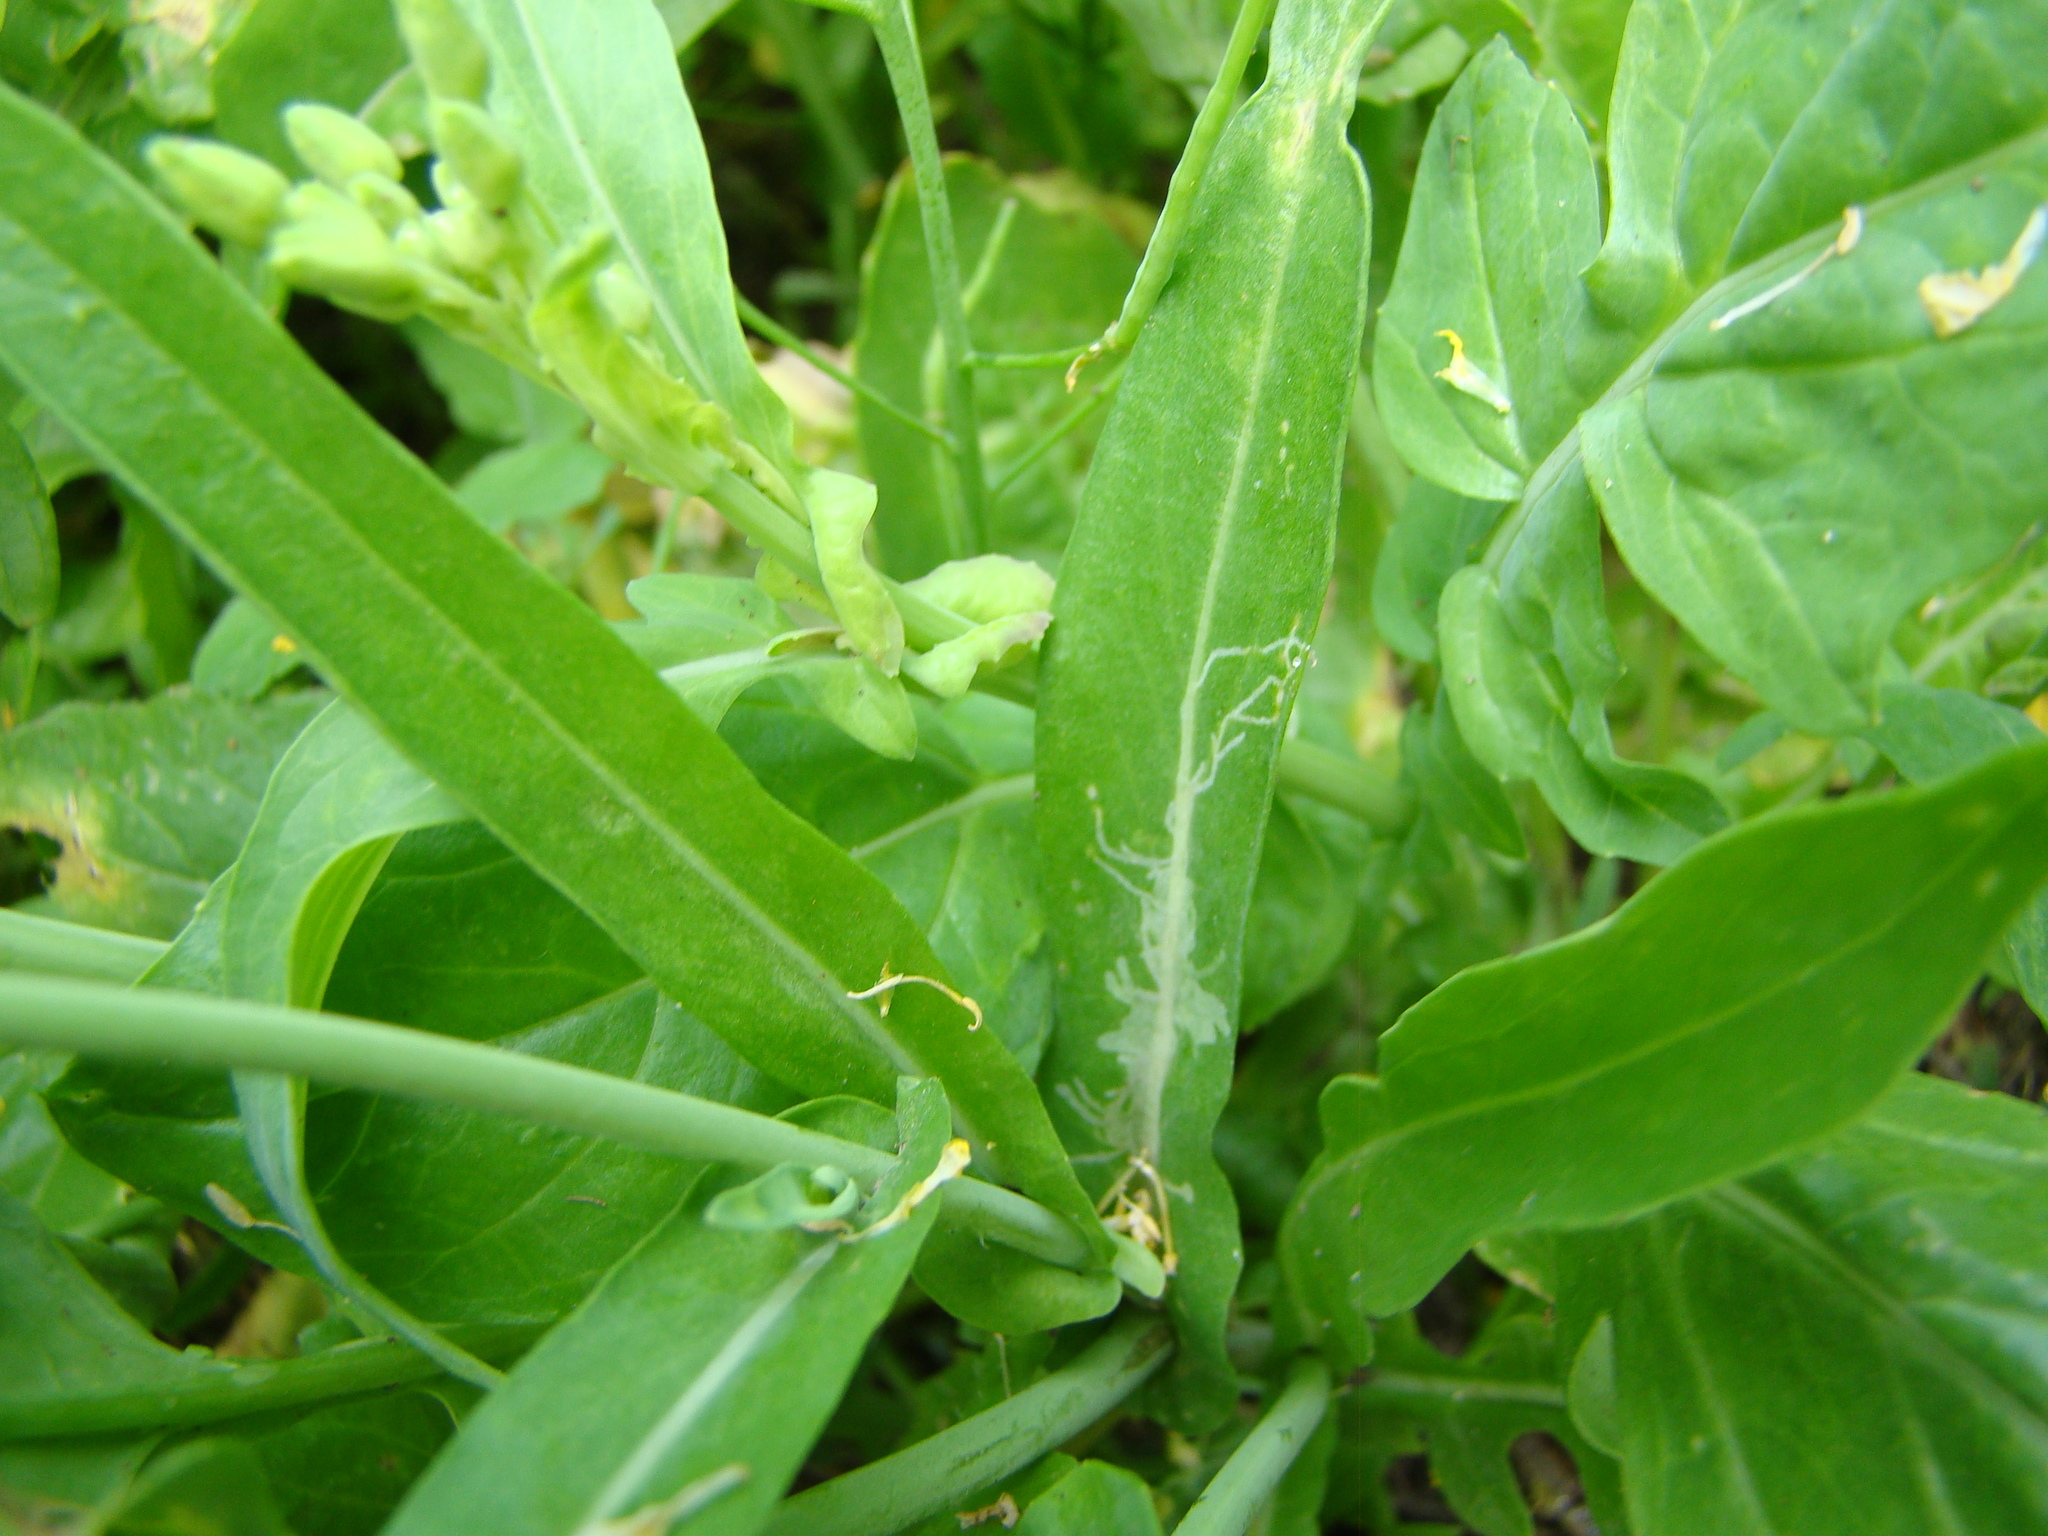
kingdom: Animalia
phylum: Arthropoda
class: Insecta
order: Diptera
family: Drosophilidae
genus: Scaptomyza
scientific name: Scaptomyza flava
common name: Fruit fly
